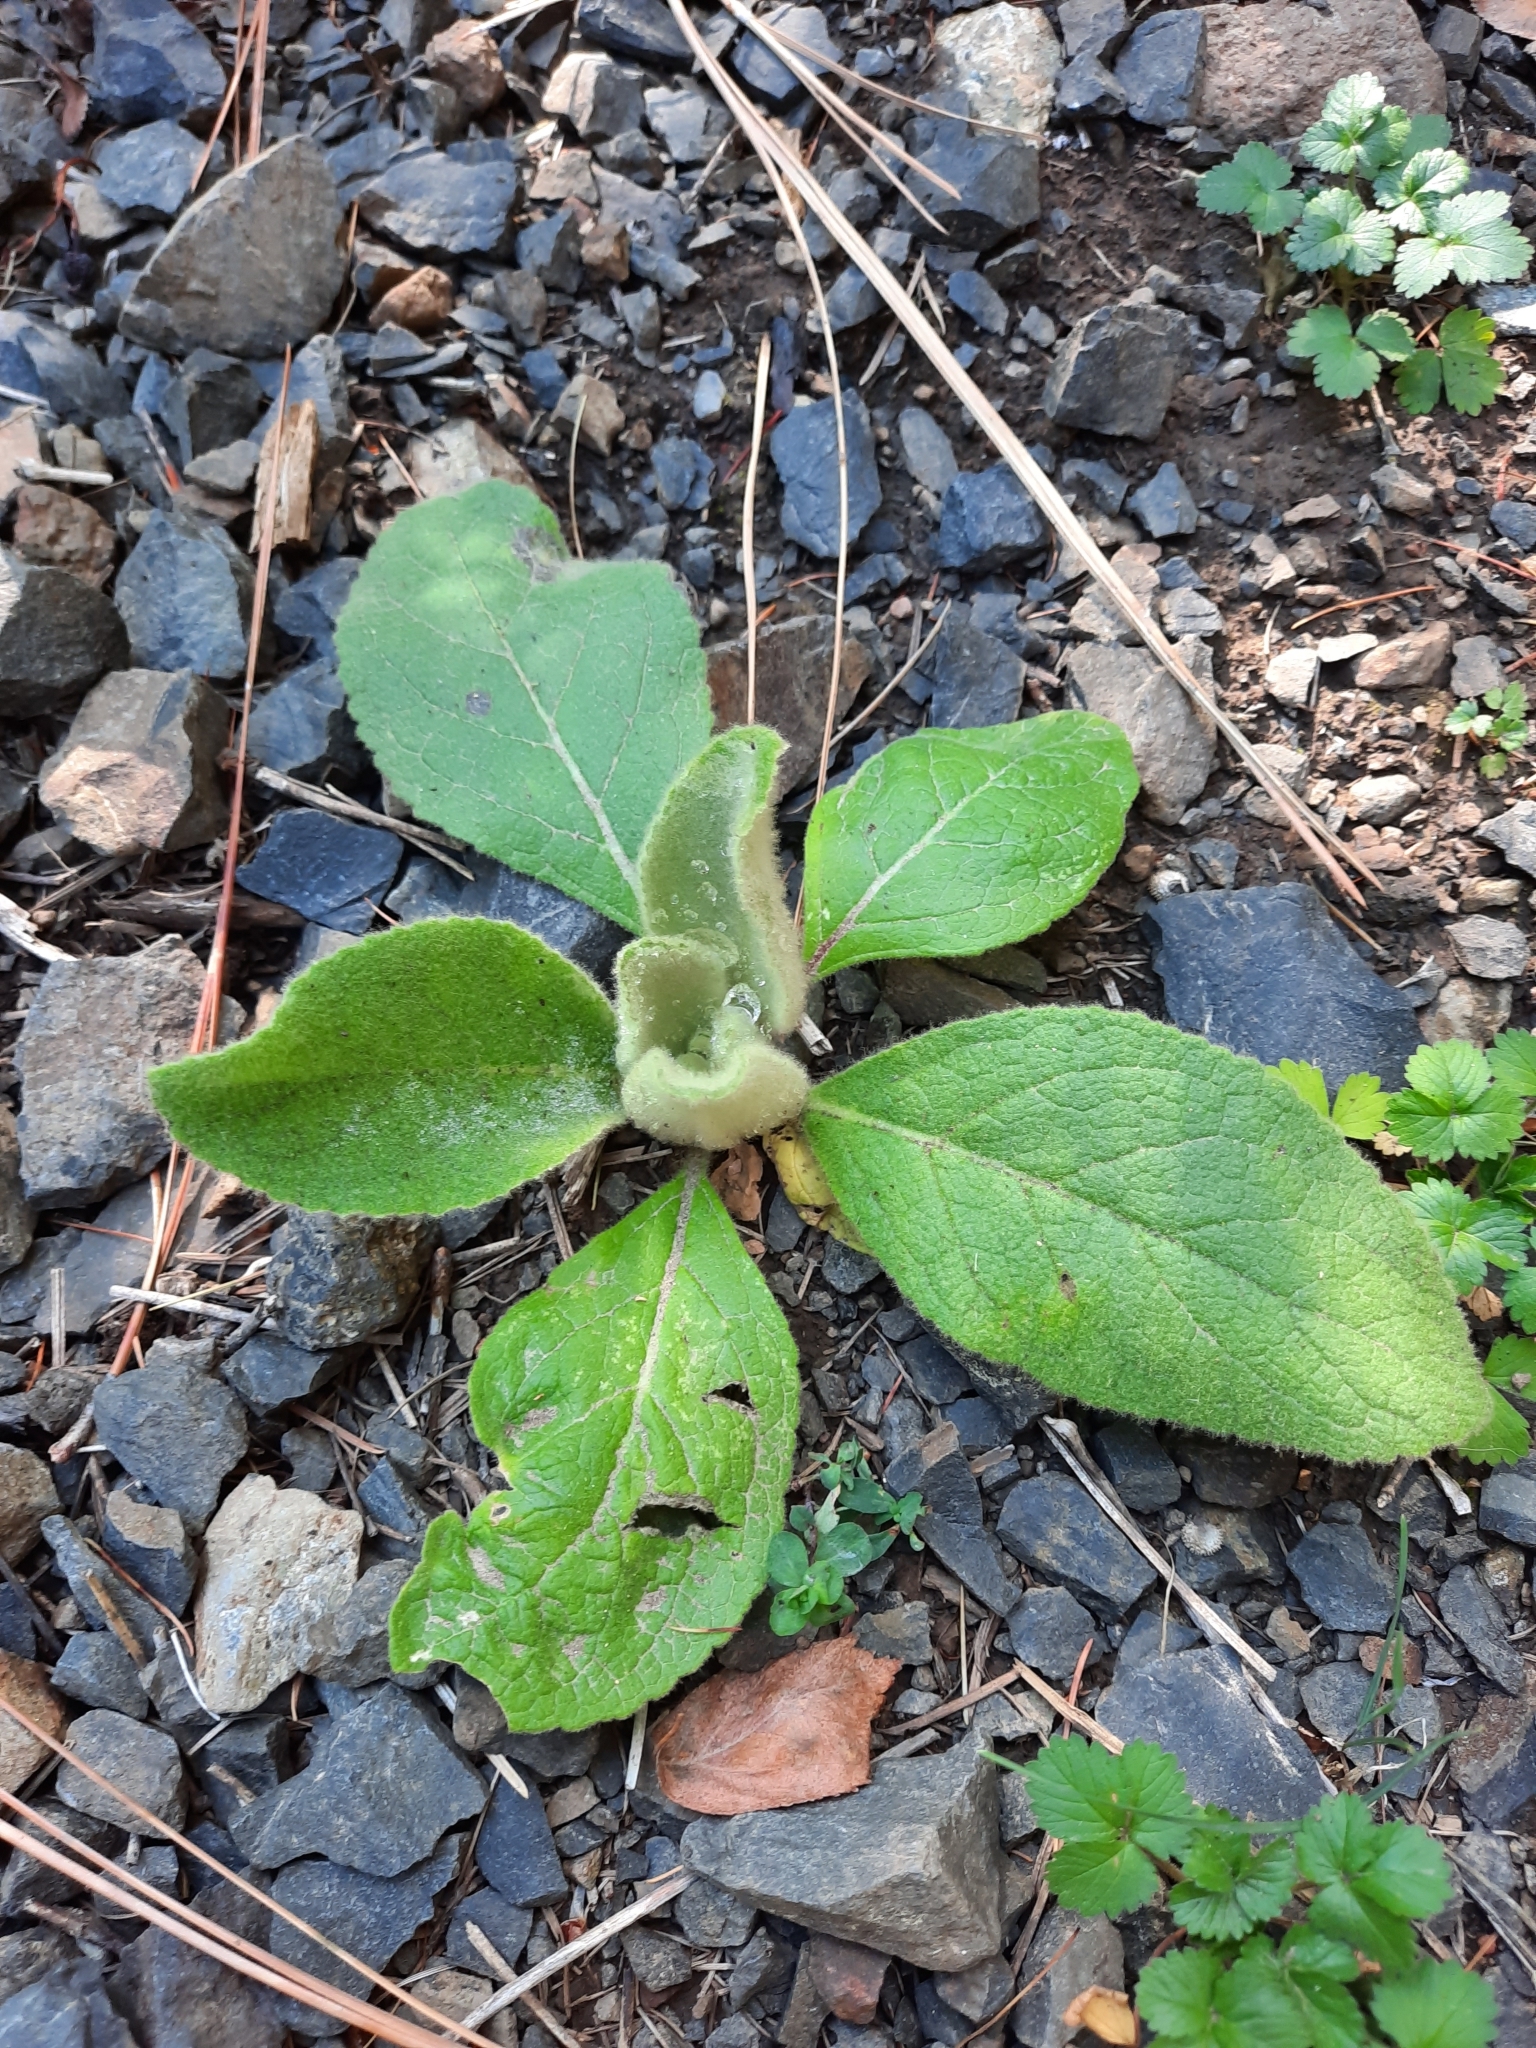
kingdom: Plantae
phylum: Tracheophyta
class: Magnoliopsida
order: Lamiales
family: Scrophulariaceae
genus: Verbascum
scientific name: Verbascum thapsus
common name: Common mullein
